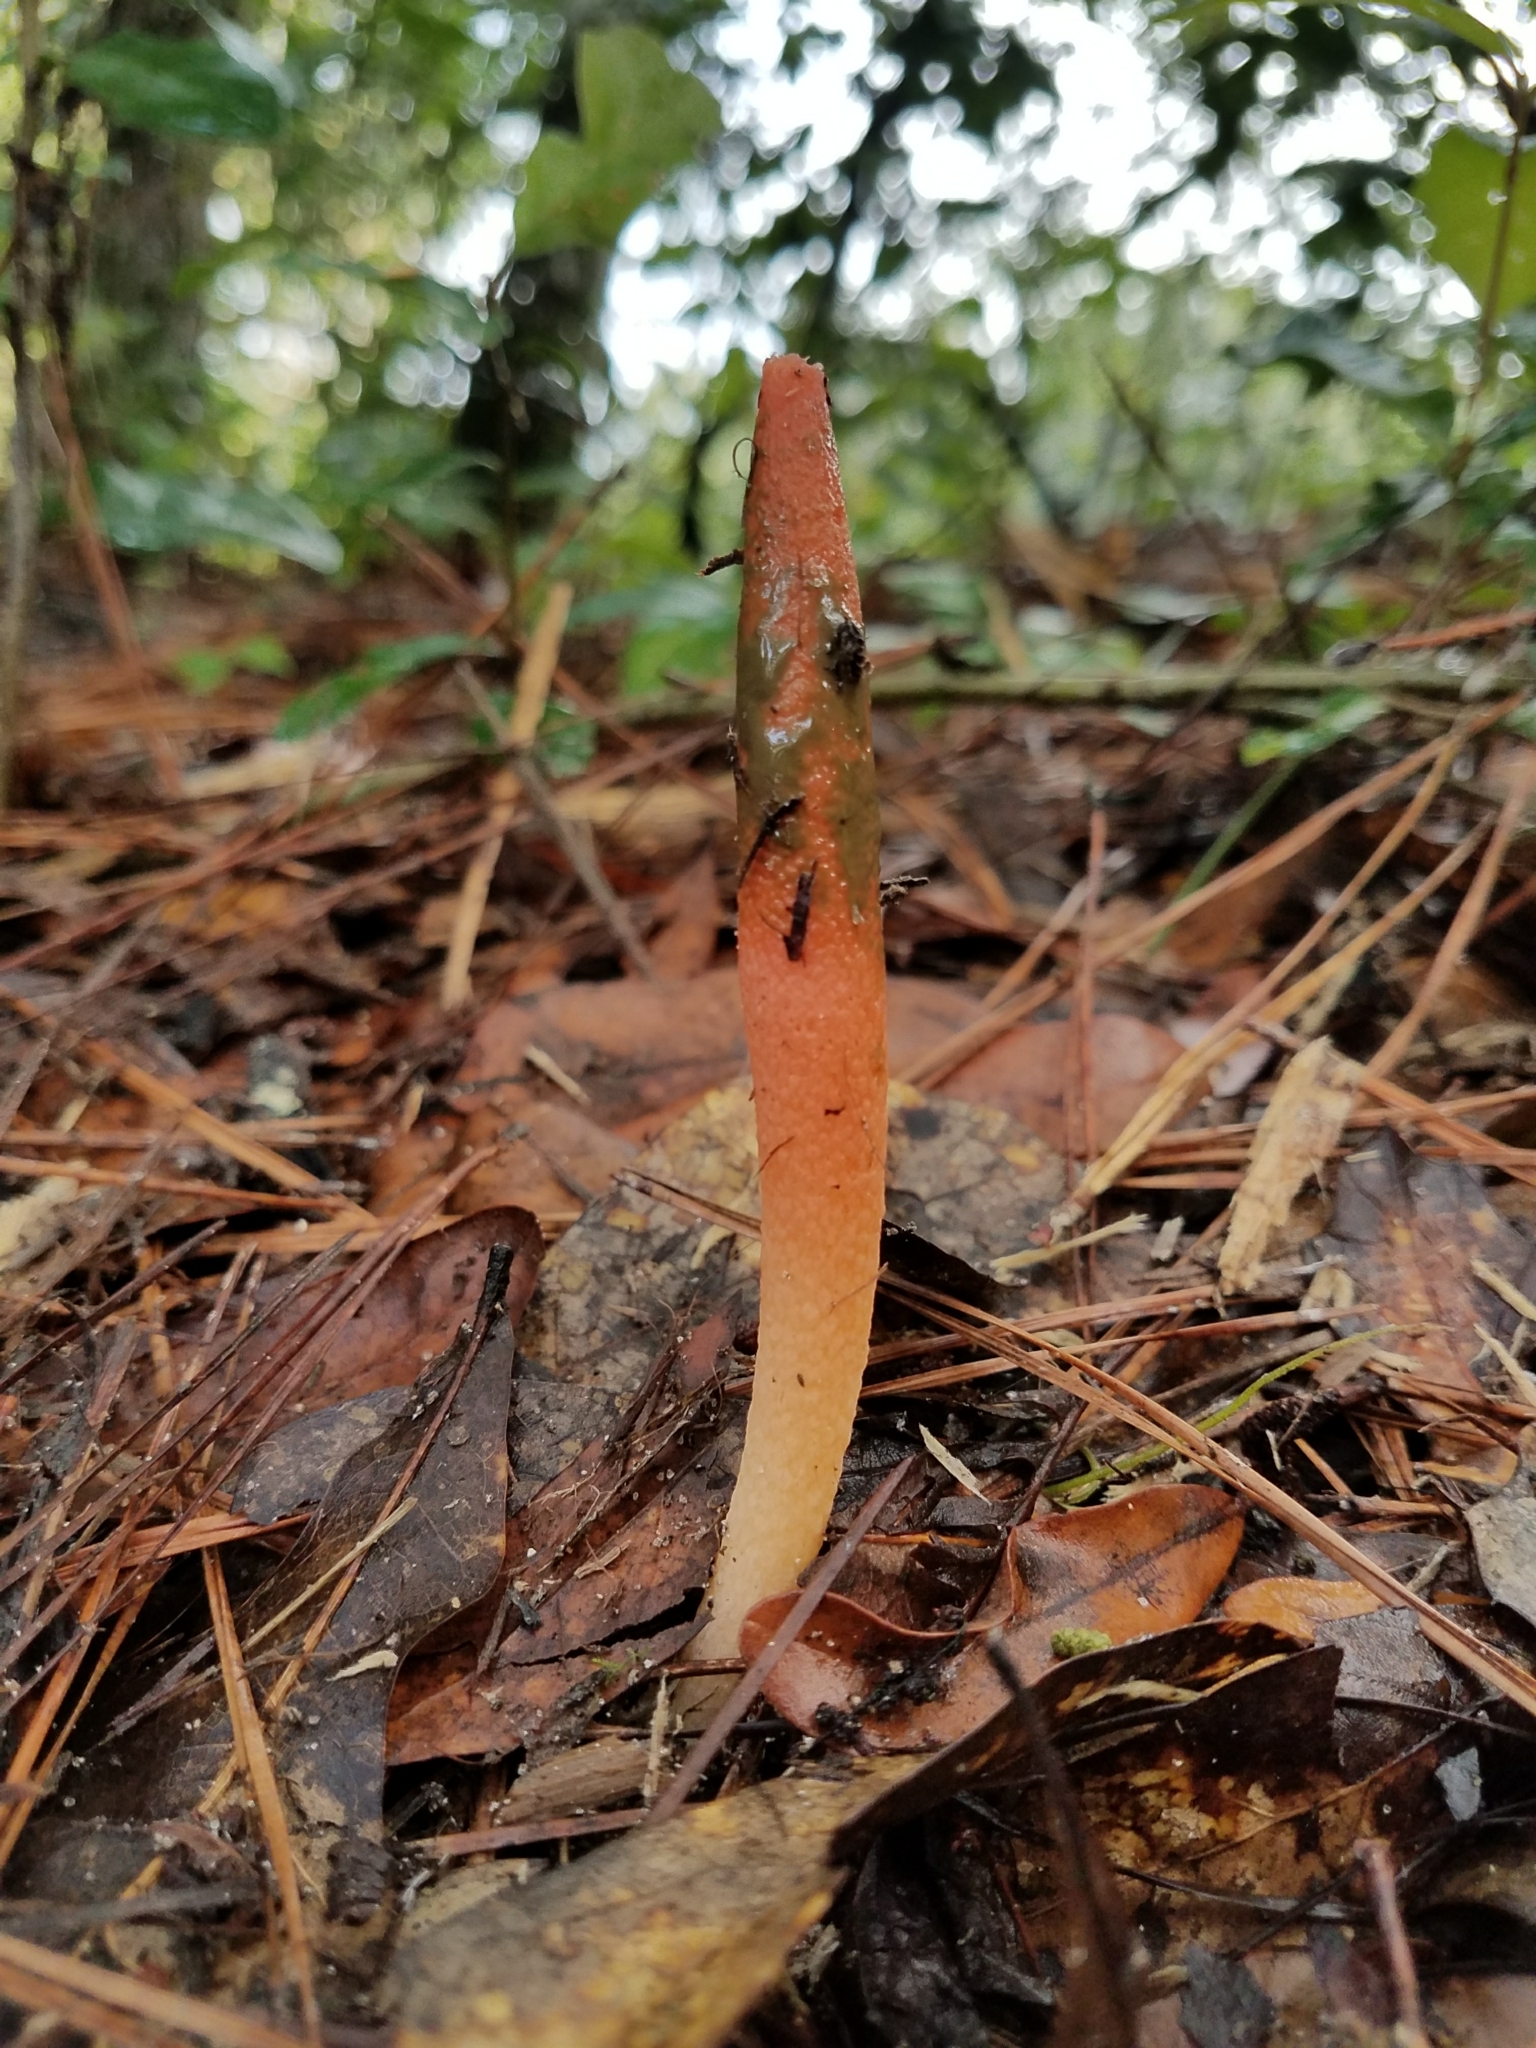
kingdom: Fungi
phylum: Basidiomycota
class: Agaricomycetes
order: Phallales
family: Phallaceae
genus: Mutinus
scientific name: Mutinus elegans
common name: Devil's dipstick
